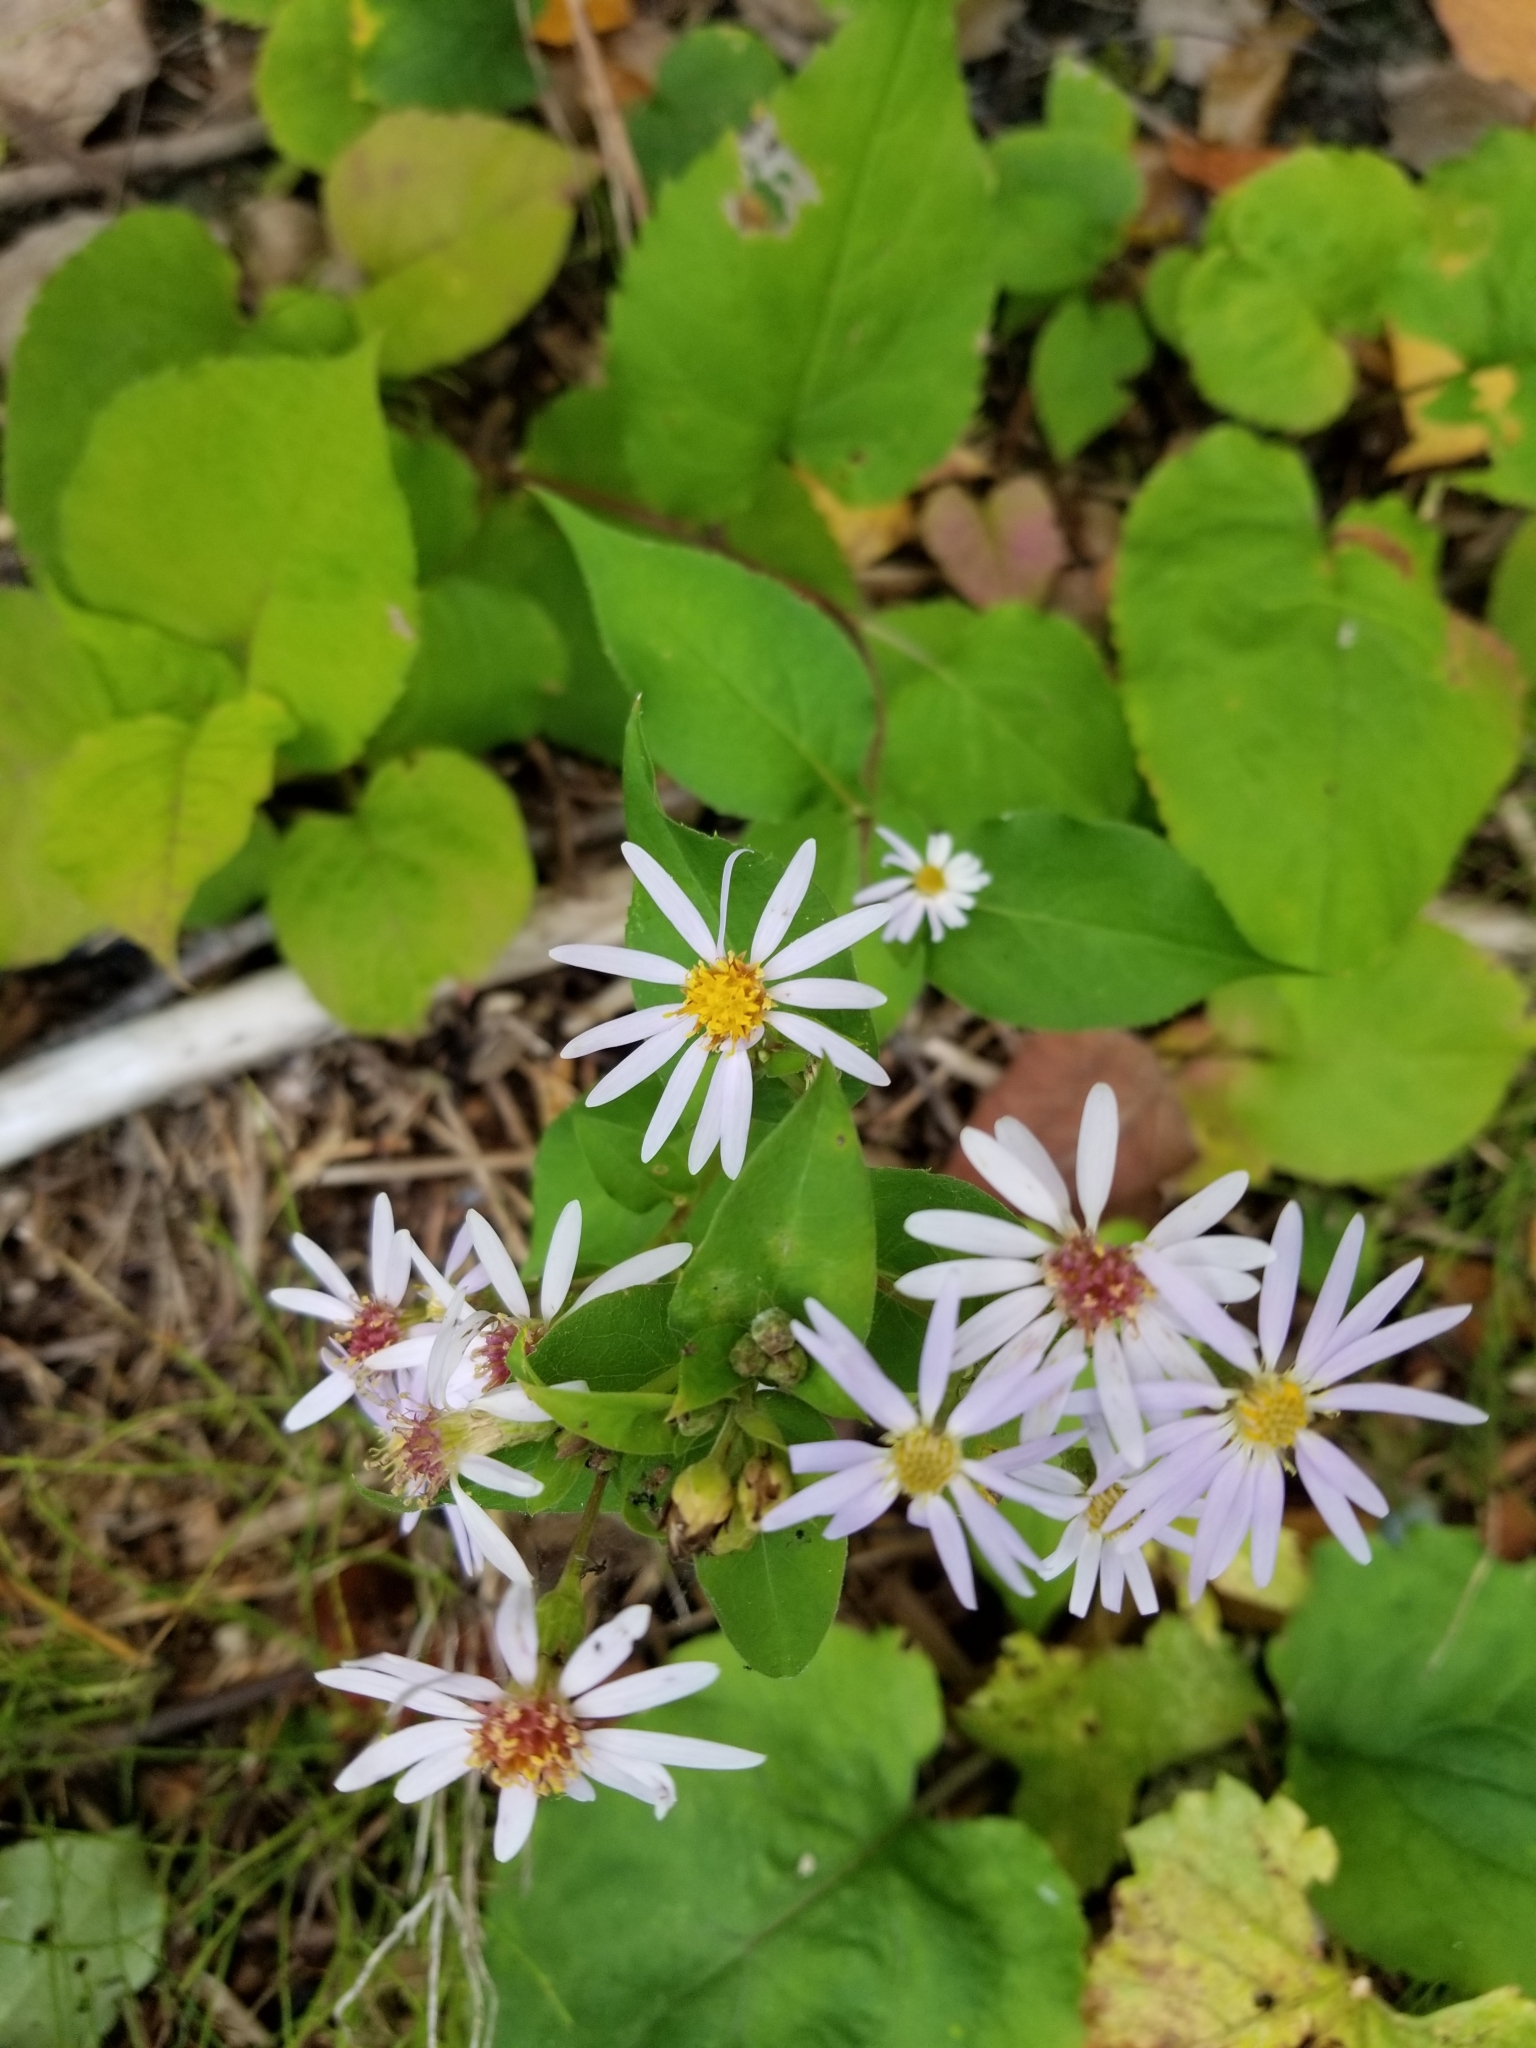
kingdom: Plantae
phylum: Tracheophyta
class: Magnoliopsida
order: Asterales
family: Asteraceae
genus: Eurybia
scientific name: Eurybia macrophylla
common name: Big-leaved aster
